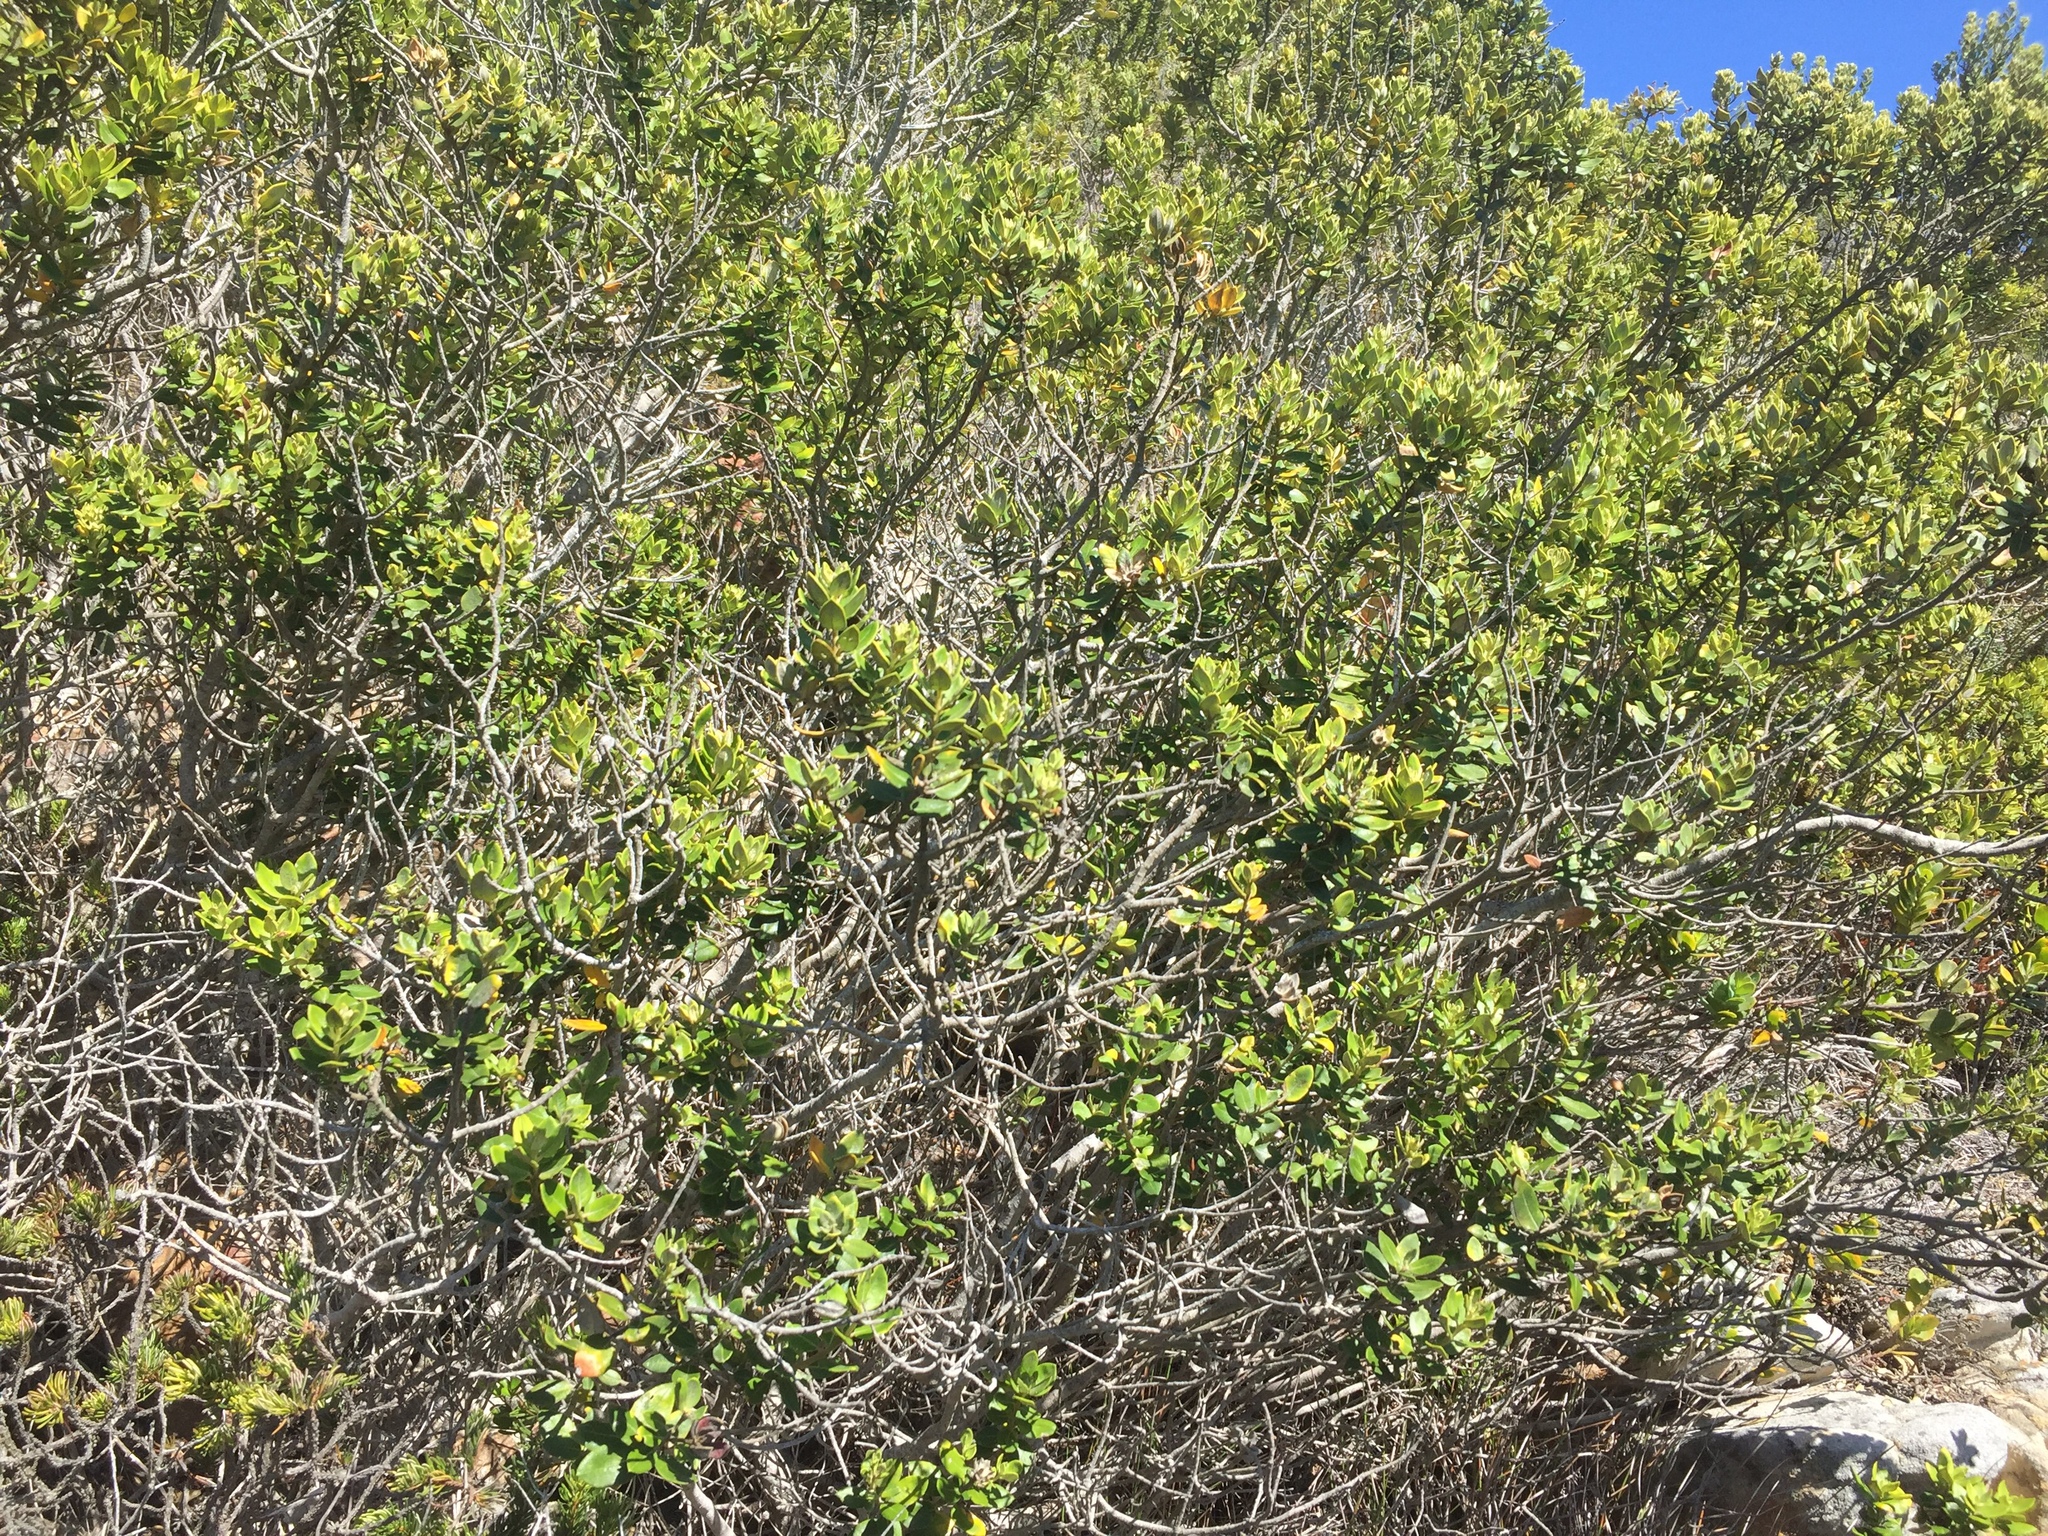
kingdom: Plantae
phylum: Tracheophyta
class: Magnoliopsida
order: Rosales
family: Rhamnaceae
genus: Phylica
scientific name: Phylica buxifolia
